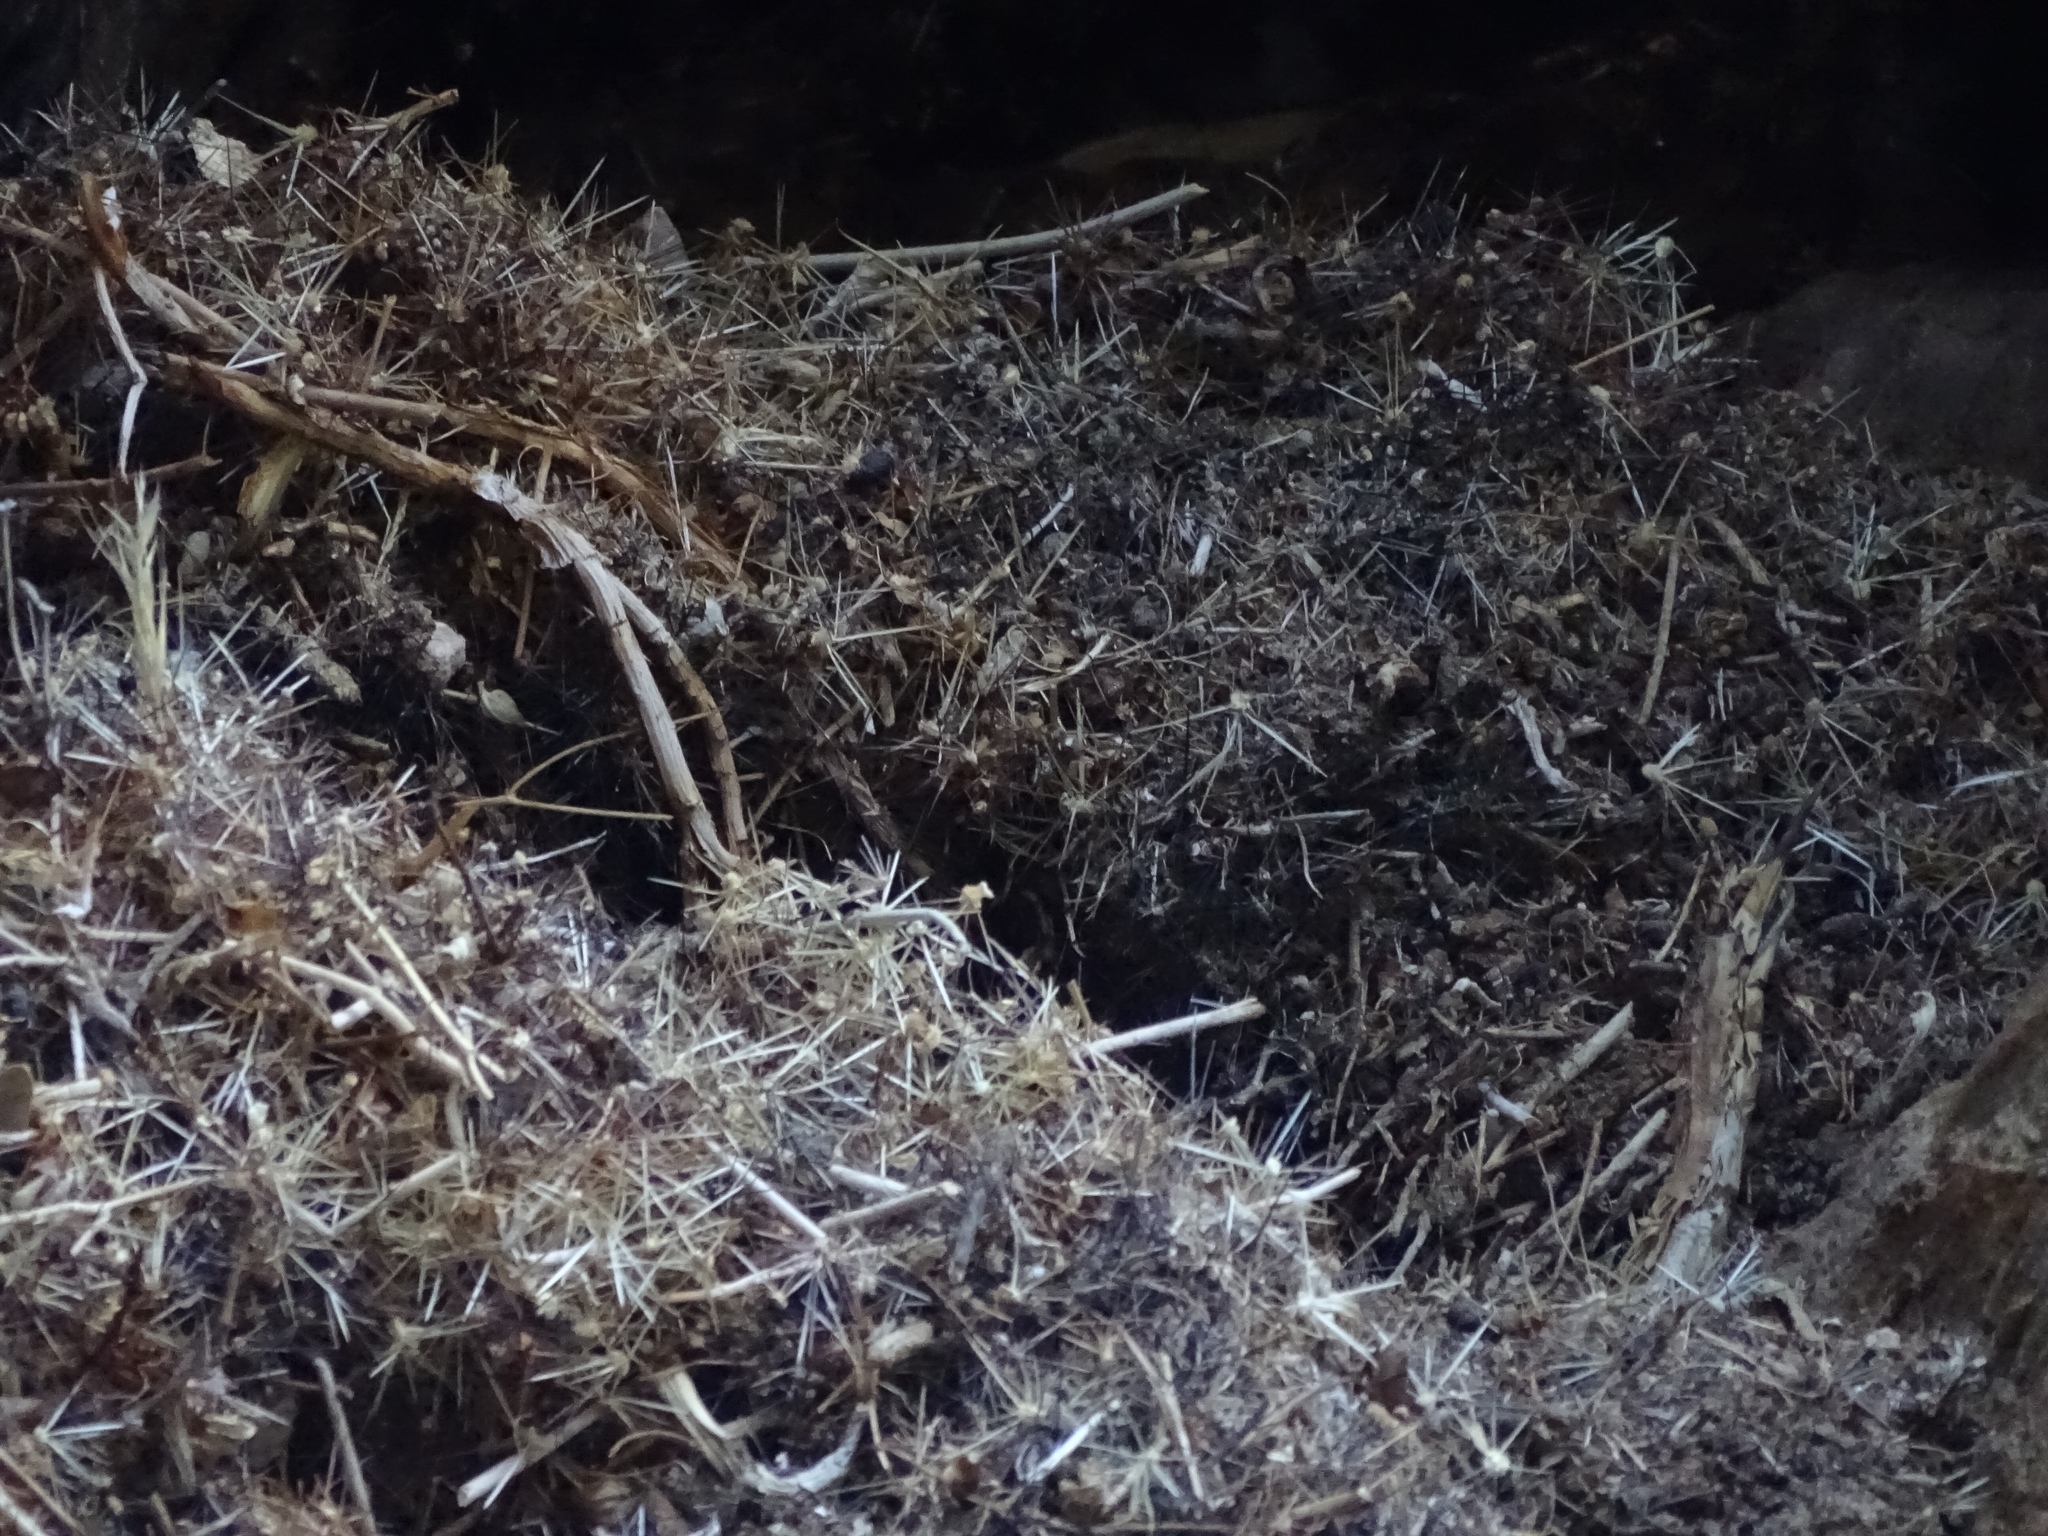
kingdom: Animalia
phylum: Chordata
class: Mammalia
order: Rodentia
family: Cricetidae
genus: Neotoma
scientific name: Neotoma bryanti
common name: Bryant's woodrat
